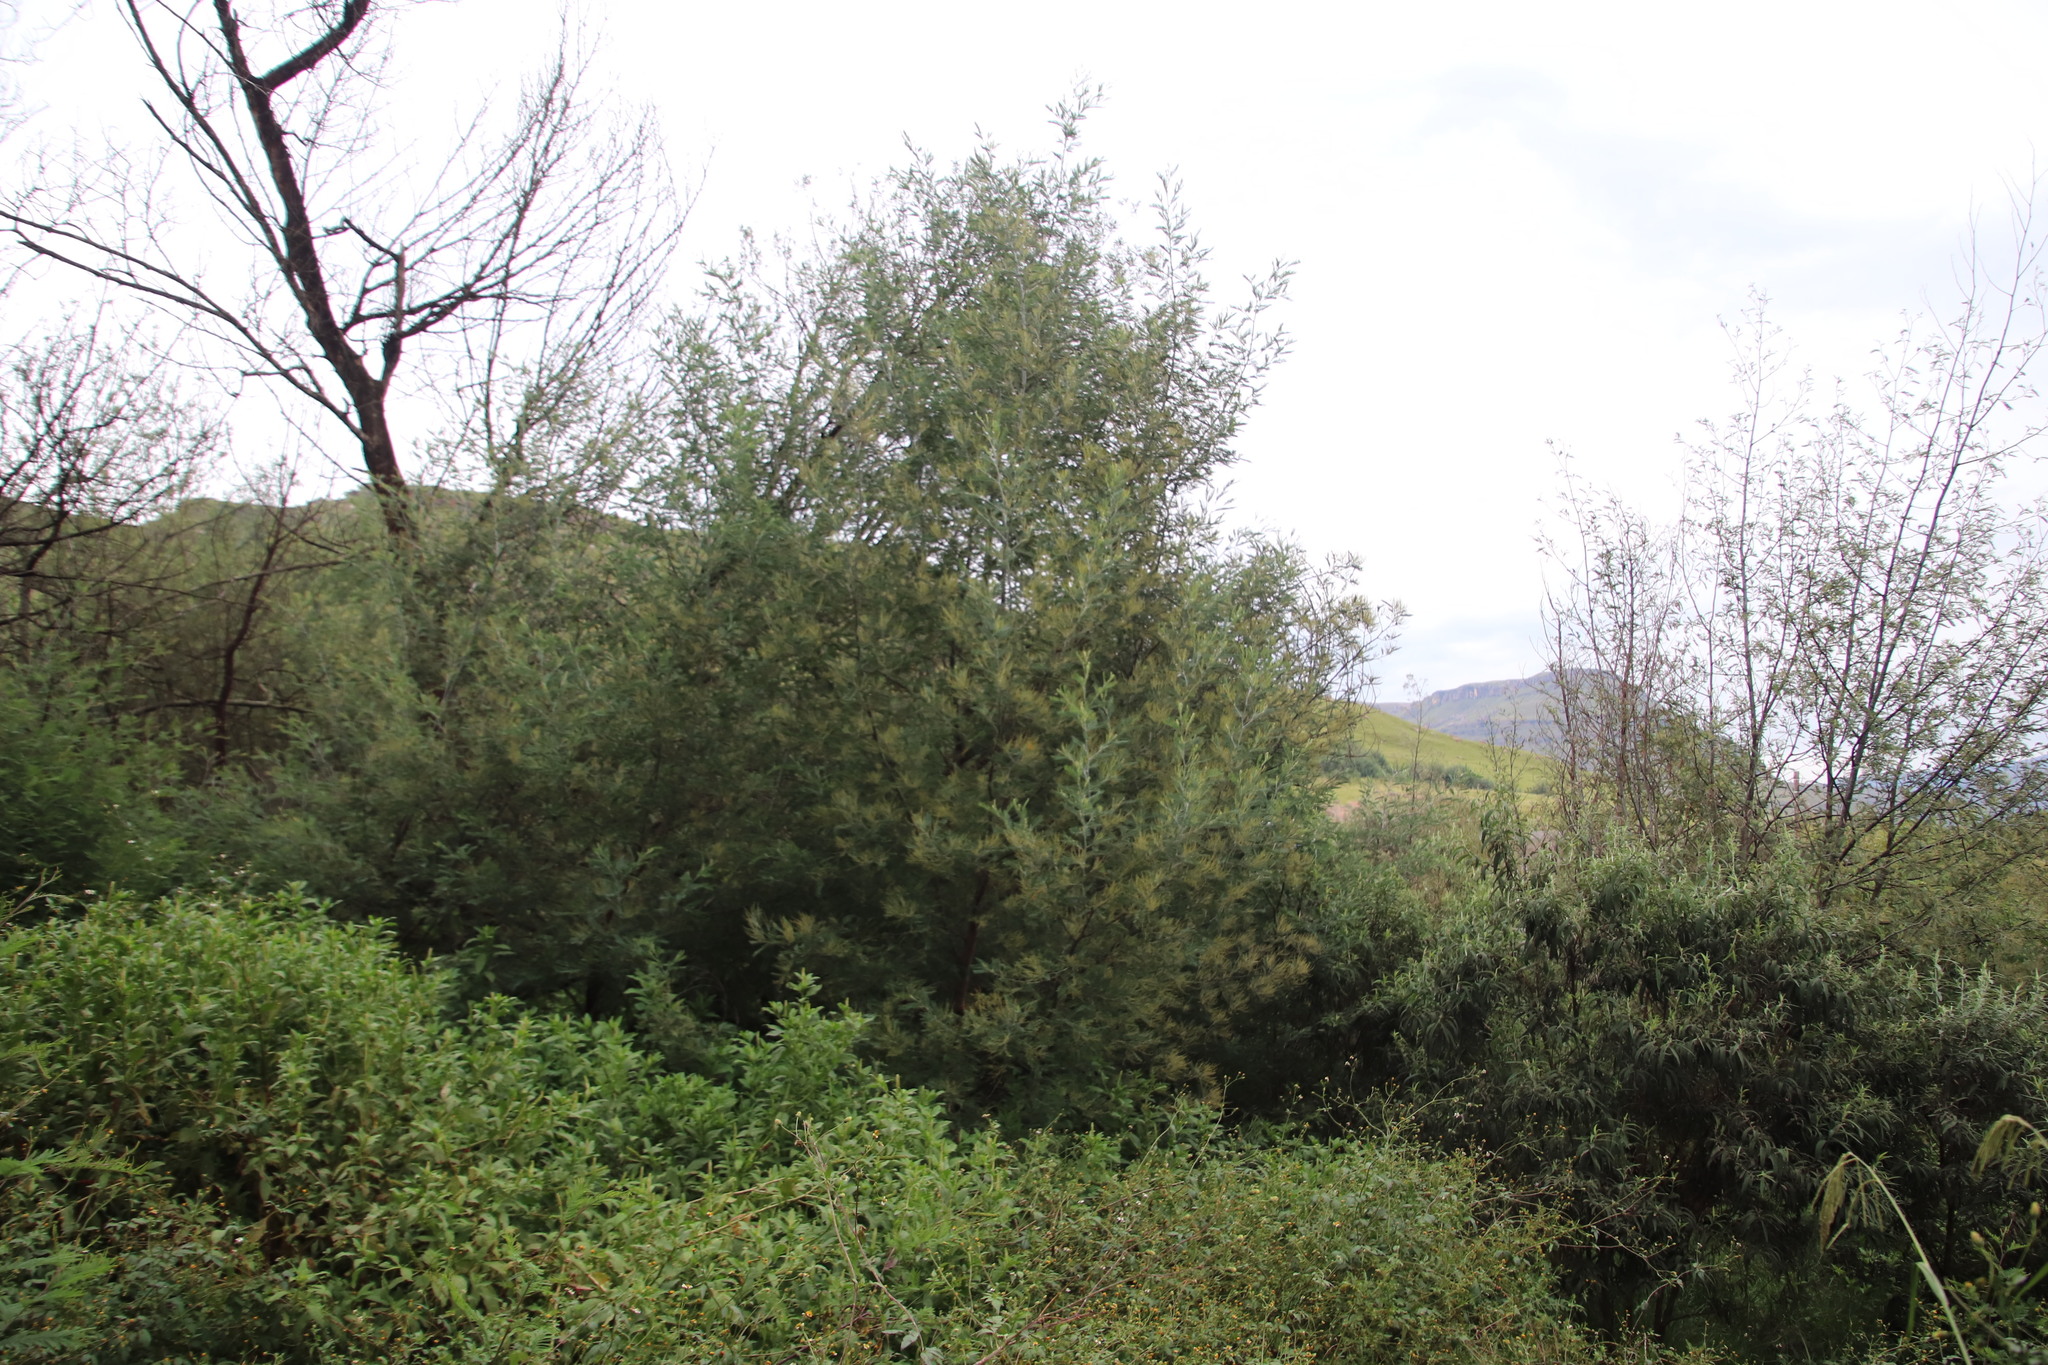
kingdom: Plantae
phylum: Tracheophyta
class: Magnoliopsida
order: Fabales
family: Fabaceae
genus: Acacia
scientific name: Acacia dealbata
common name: Silver wattle
